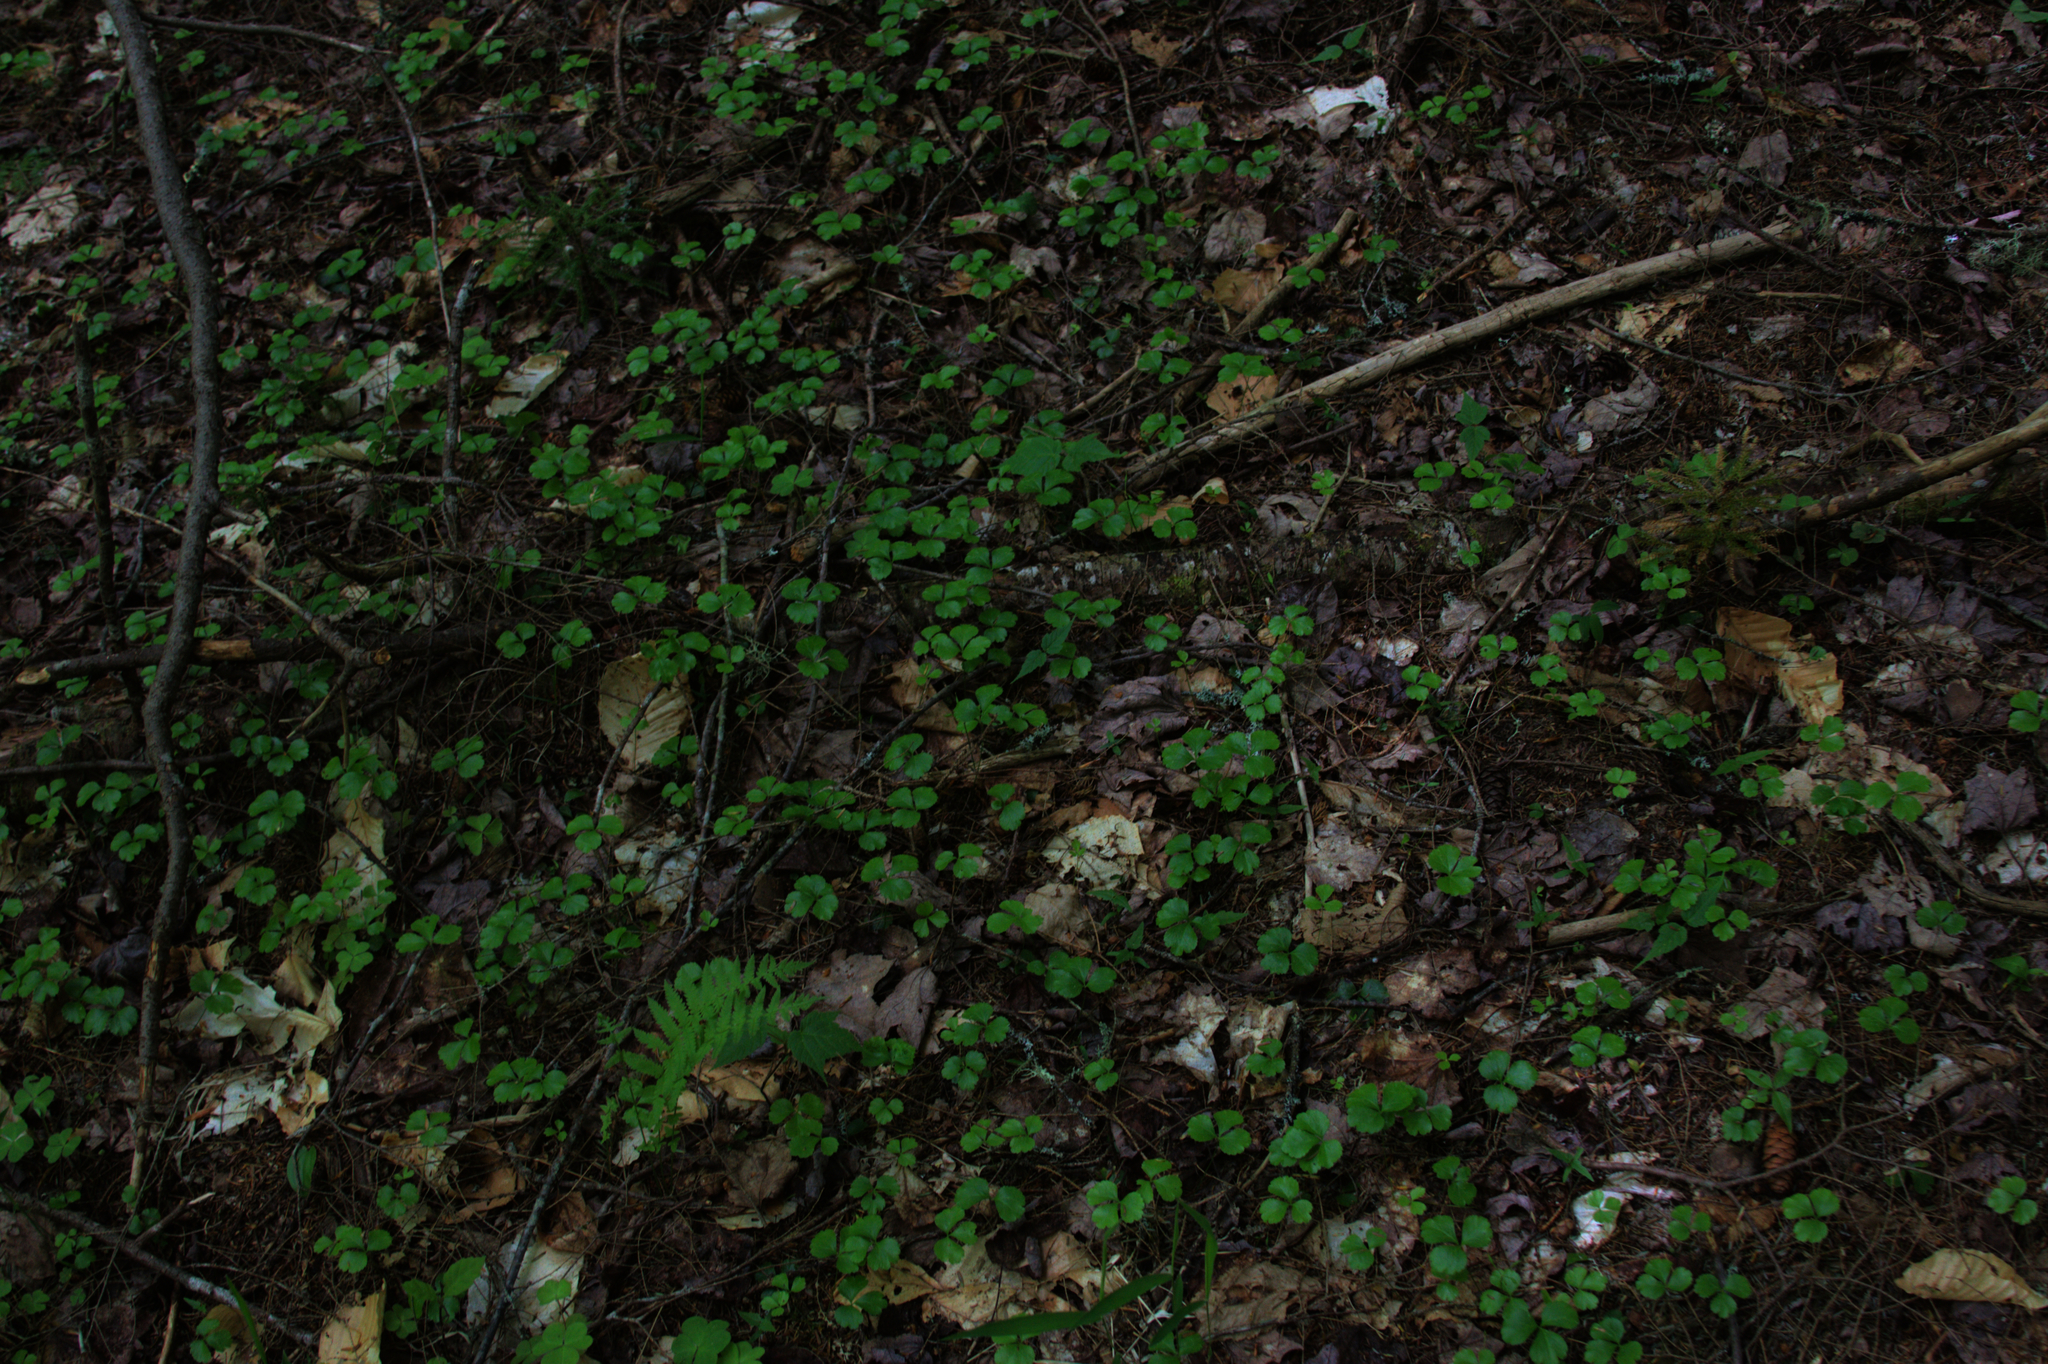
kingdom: Plantae
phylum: Tracheophyta
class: Magnoliopsida
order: Ranunculales
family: Ranunculaceae
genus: Coptis
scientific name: Coptis trifolia
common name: Canker-root
